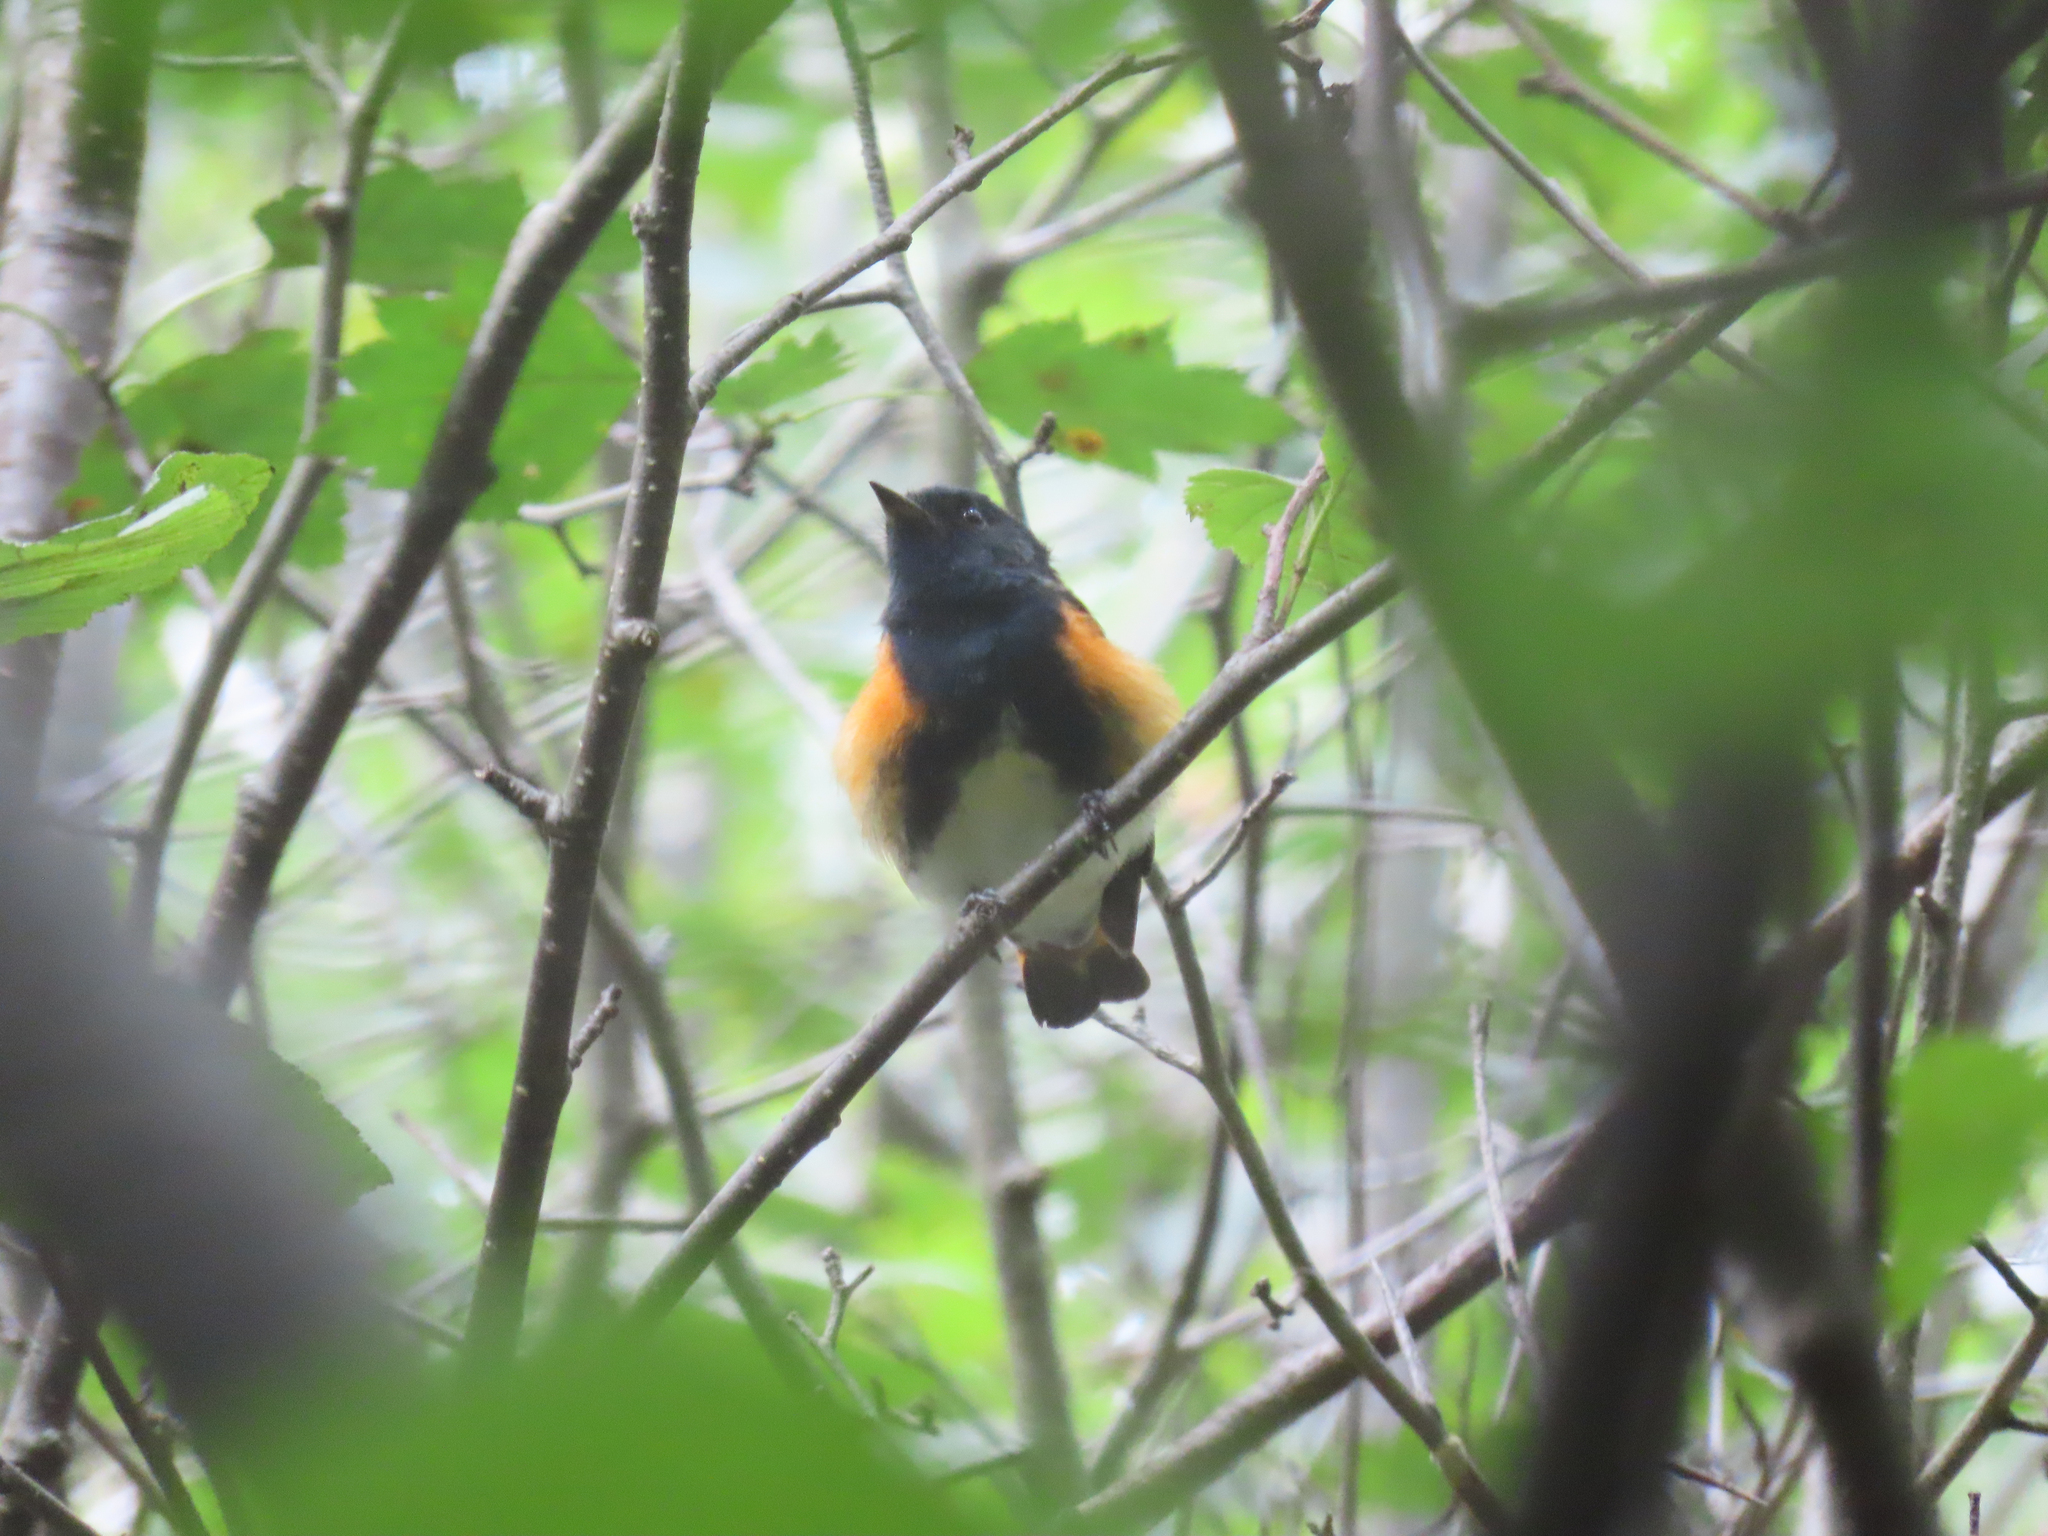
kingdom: Animalia
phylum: Chordata
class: Aves
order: Passeriformes
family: Parulidae
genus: Setophaga
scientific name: Setophaga ruticilla
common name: American redstart
